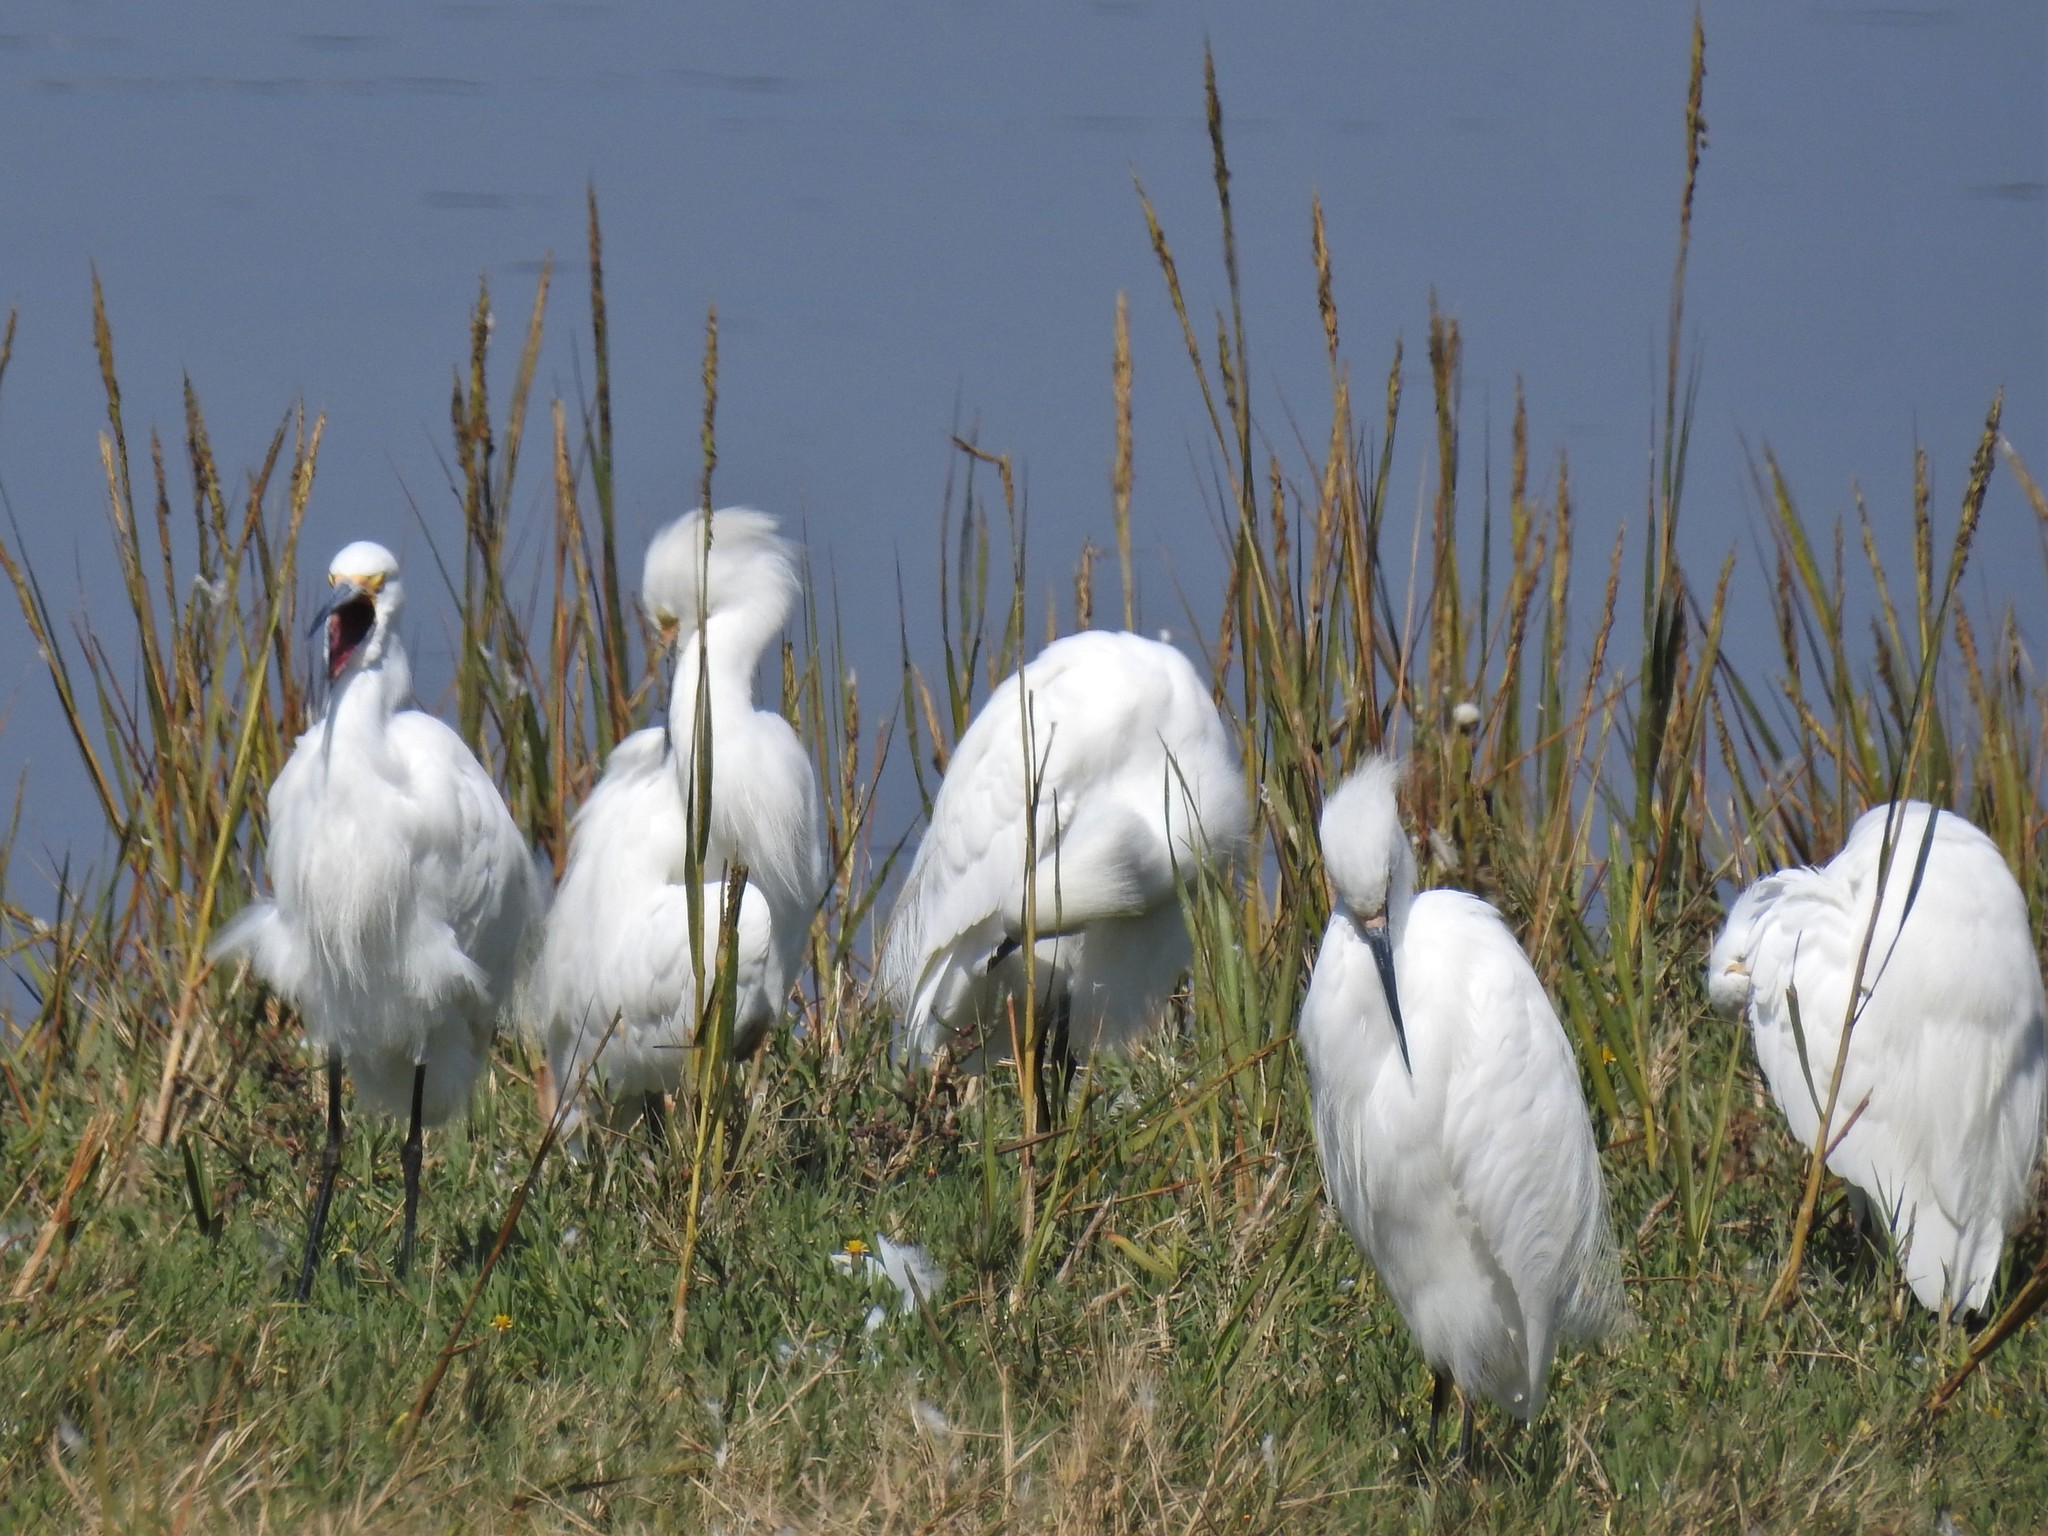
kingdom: Animalia
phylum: Chordata
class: Aves
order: Pelecaniformes
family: Ardeidae
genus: Egretta
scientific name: Egretta thula
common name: Snowy egret
